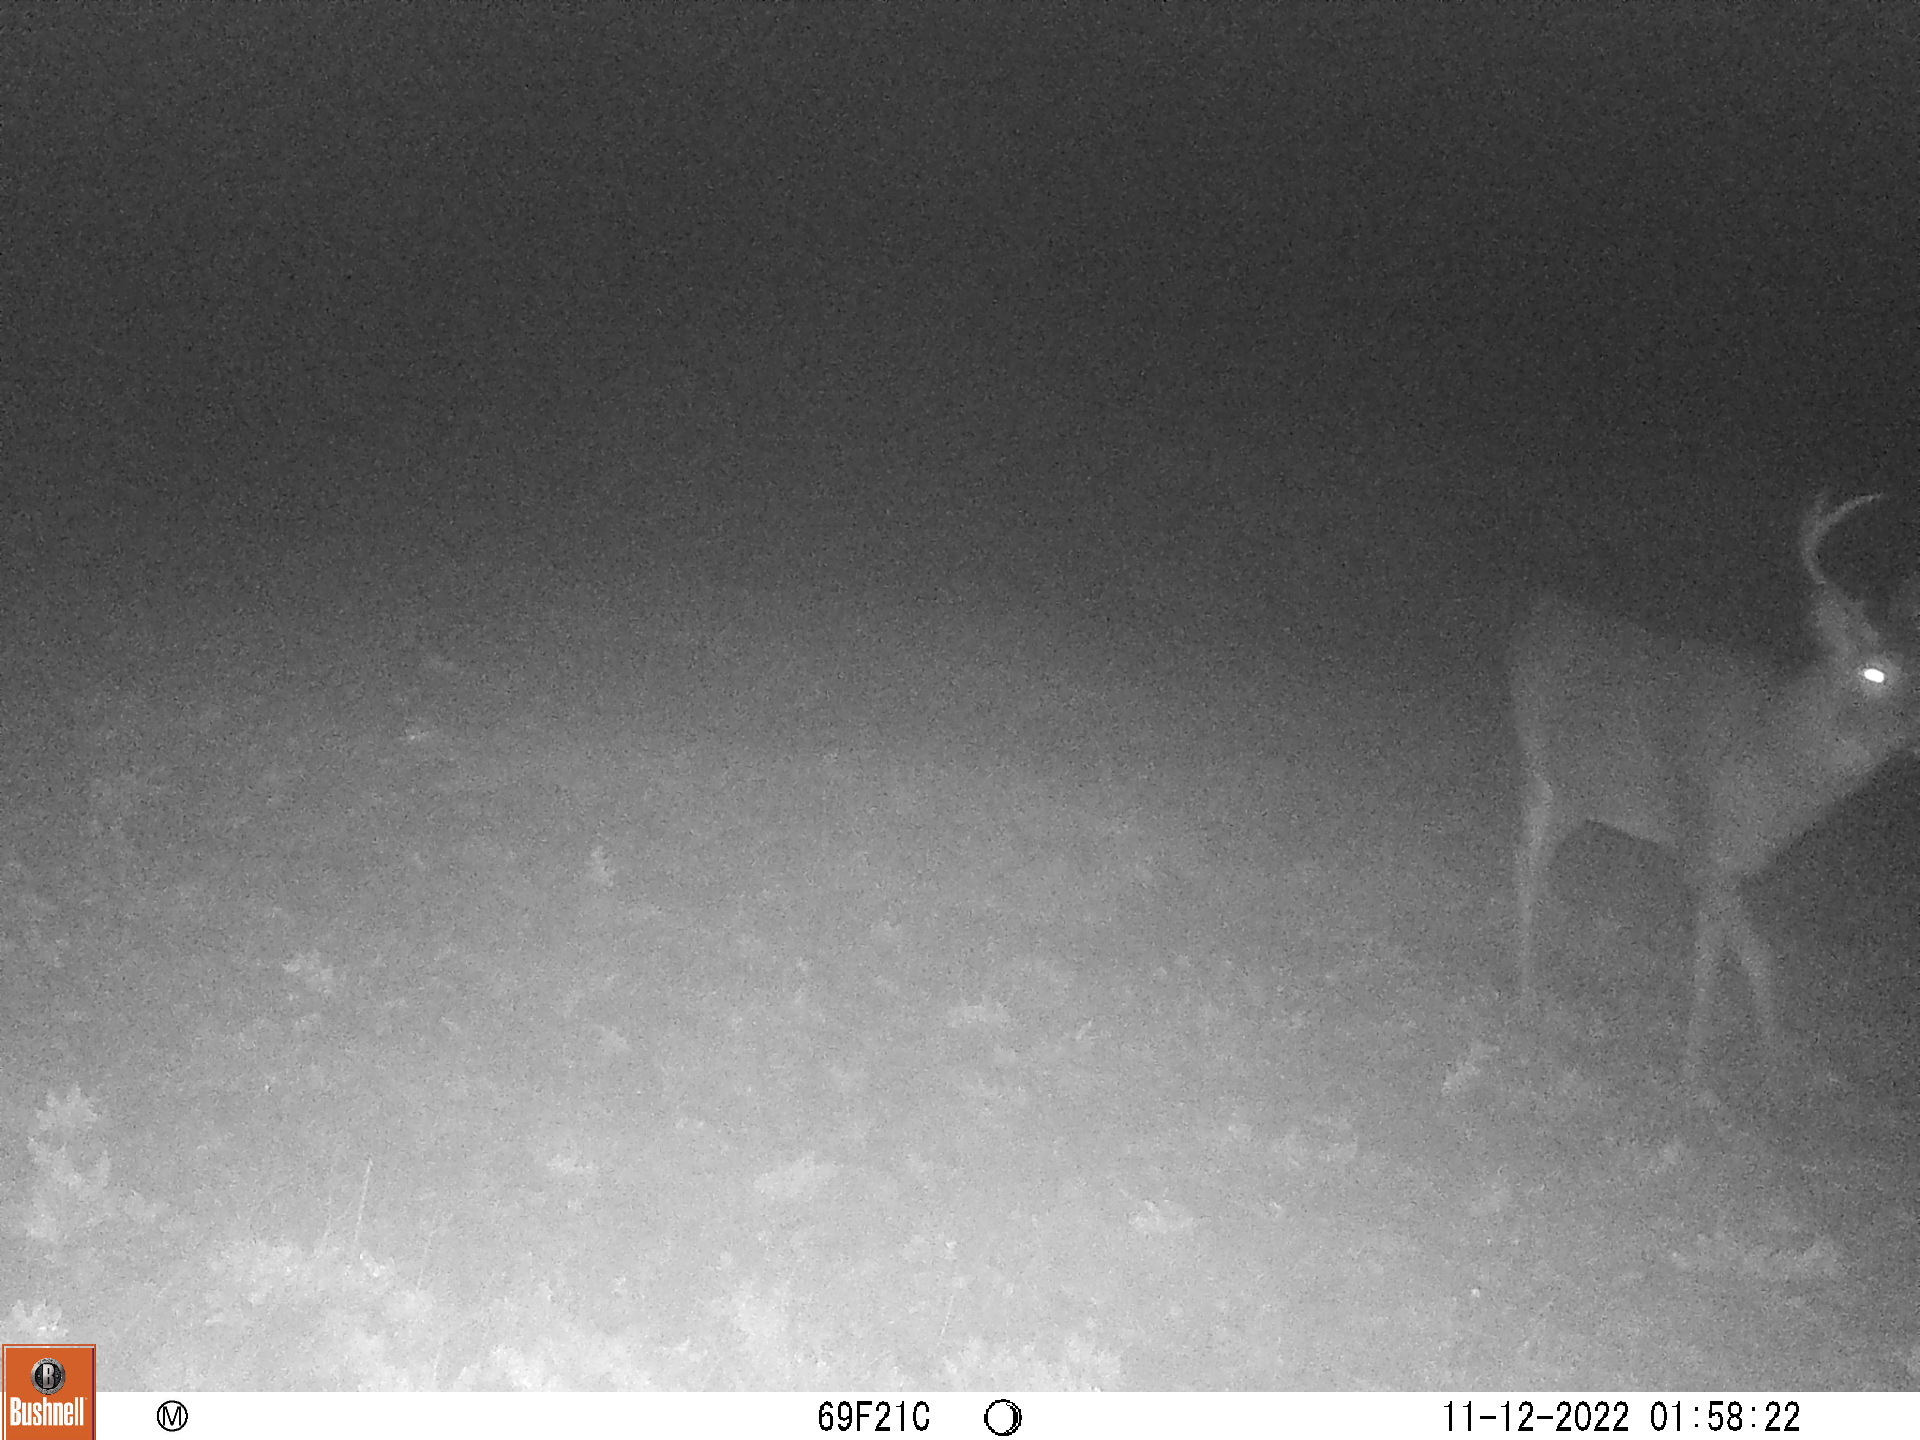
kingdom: Animalia
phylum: Chordata
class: Mammalia
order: Artiodactyla
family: Cervidae
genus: Odocoileus
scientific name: Odocoileus virginianus
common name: White-tailed deer
